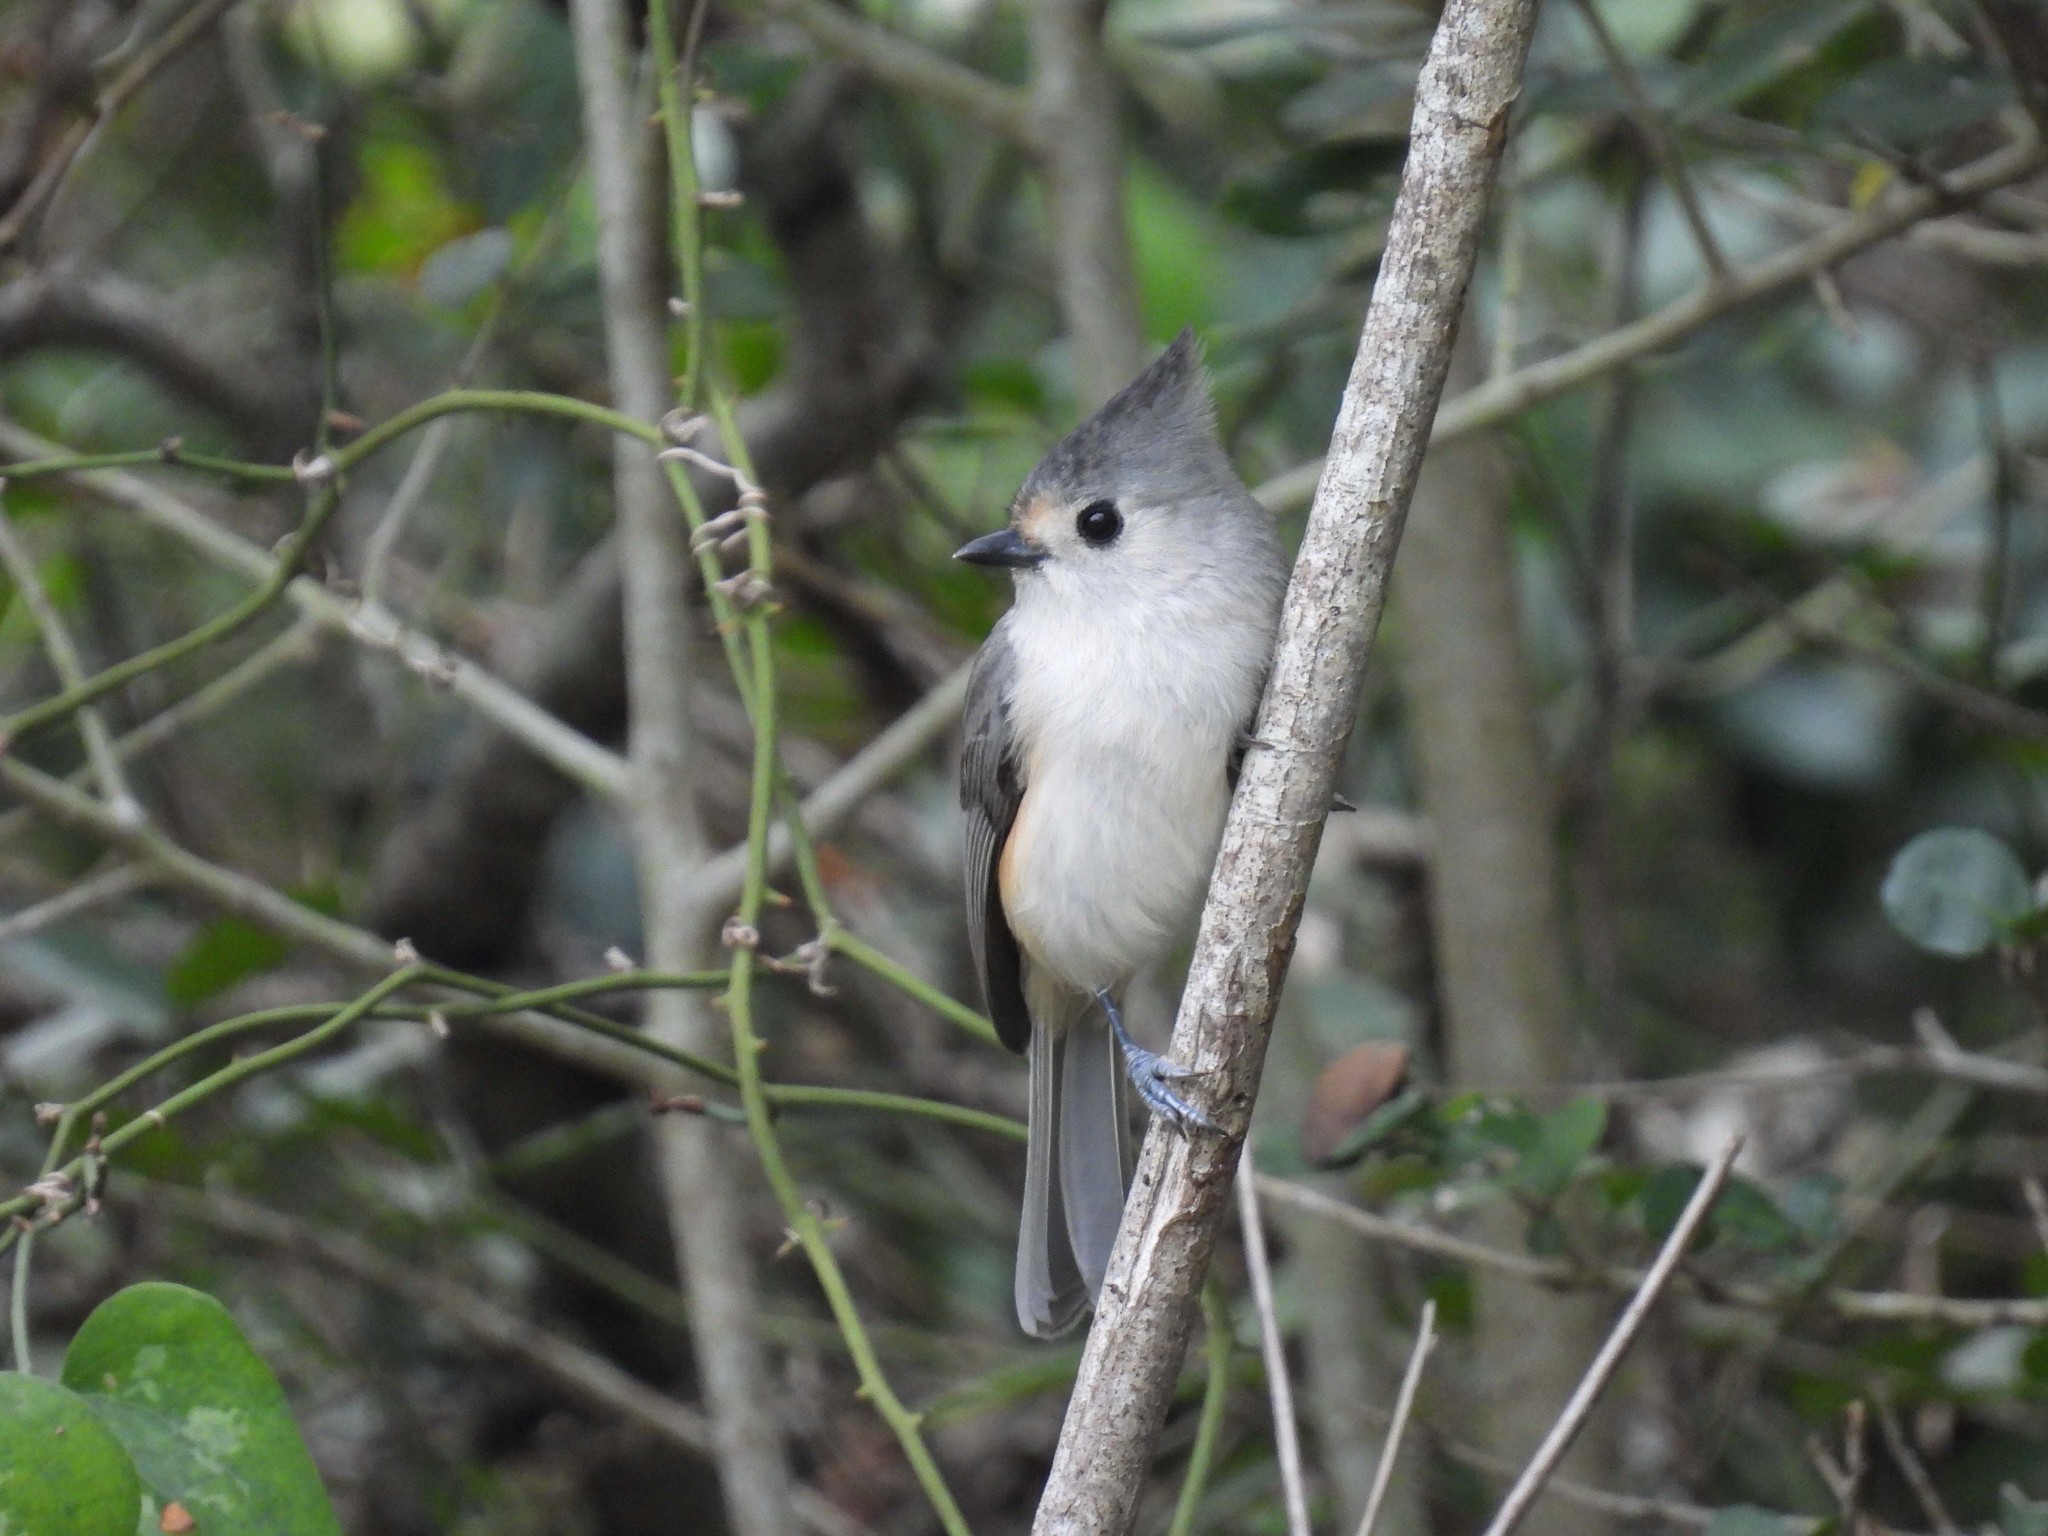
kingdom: Animalia
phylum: Chordata
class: Aves
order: Passeriformes
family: Paridae
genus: Baeolophus
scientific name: Baeolophus atricristatus
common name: Black-crested titmouse
